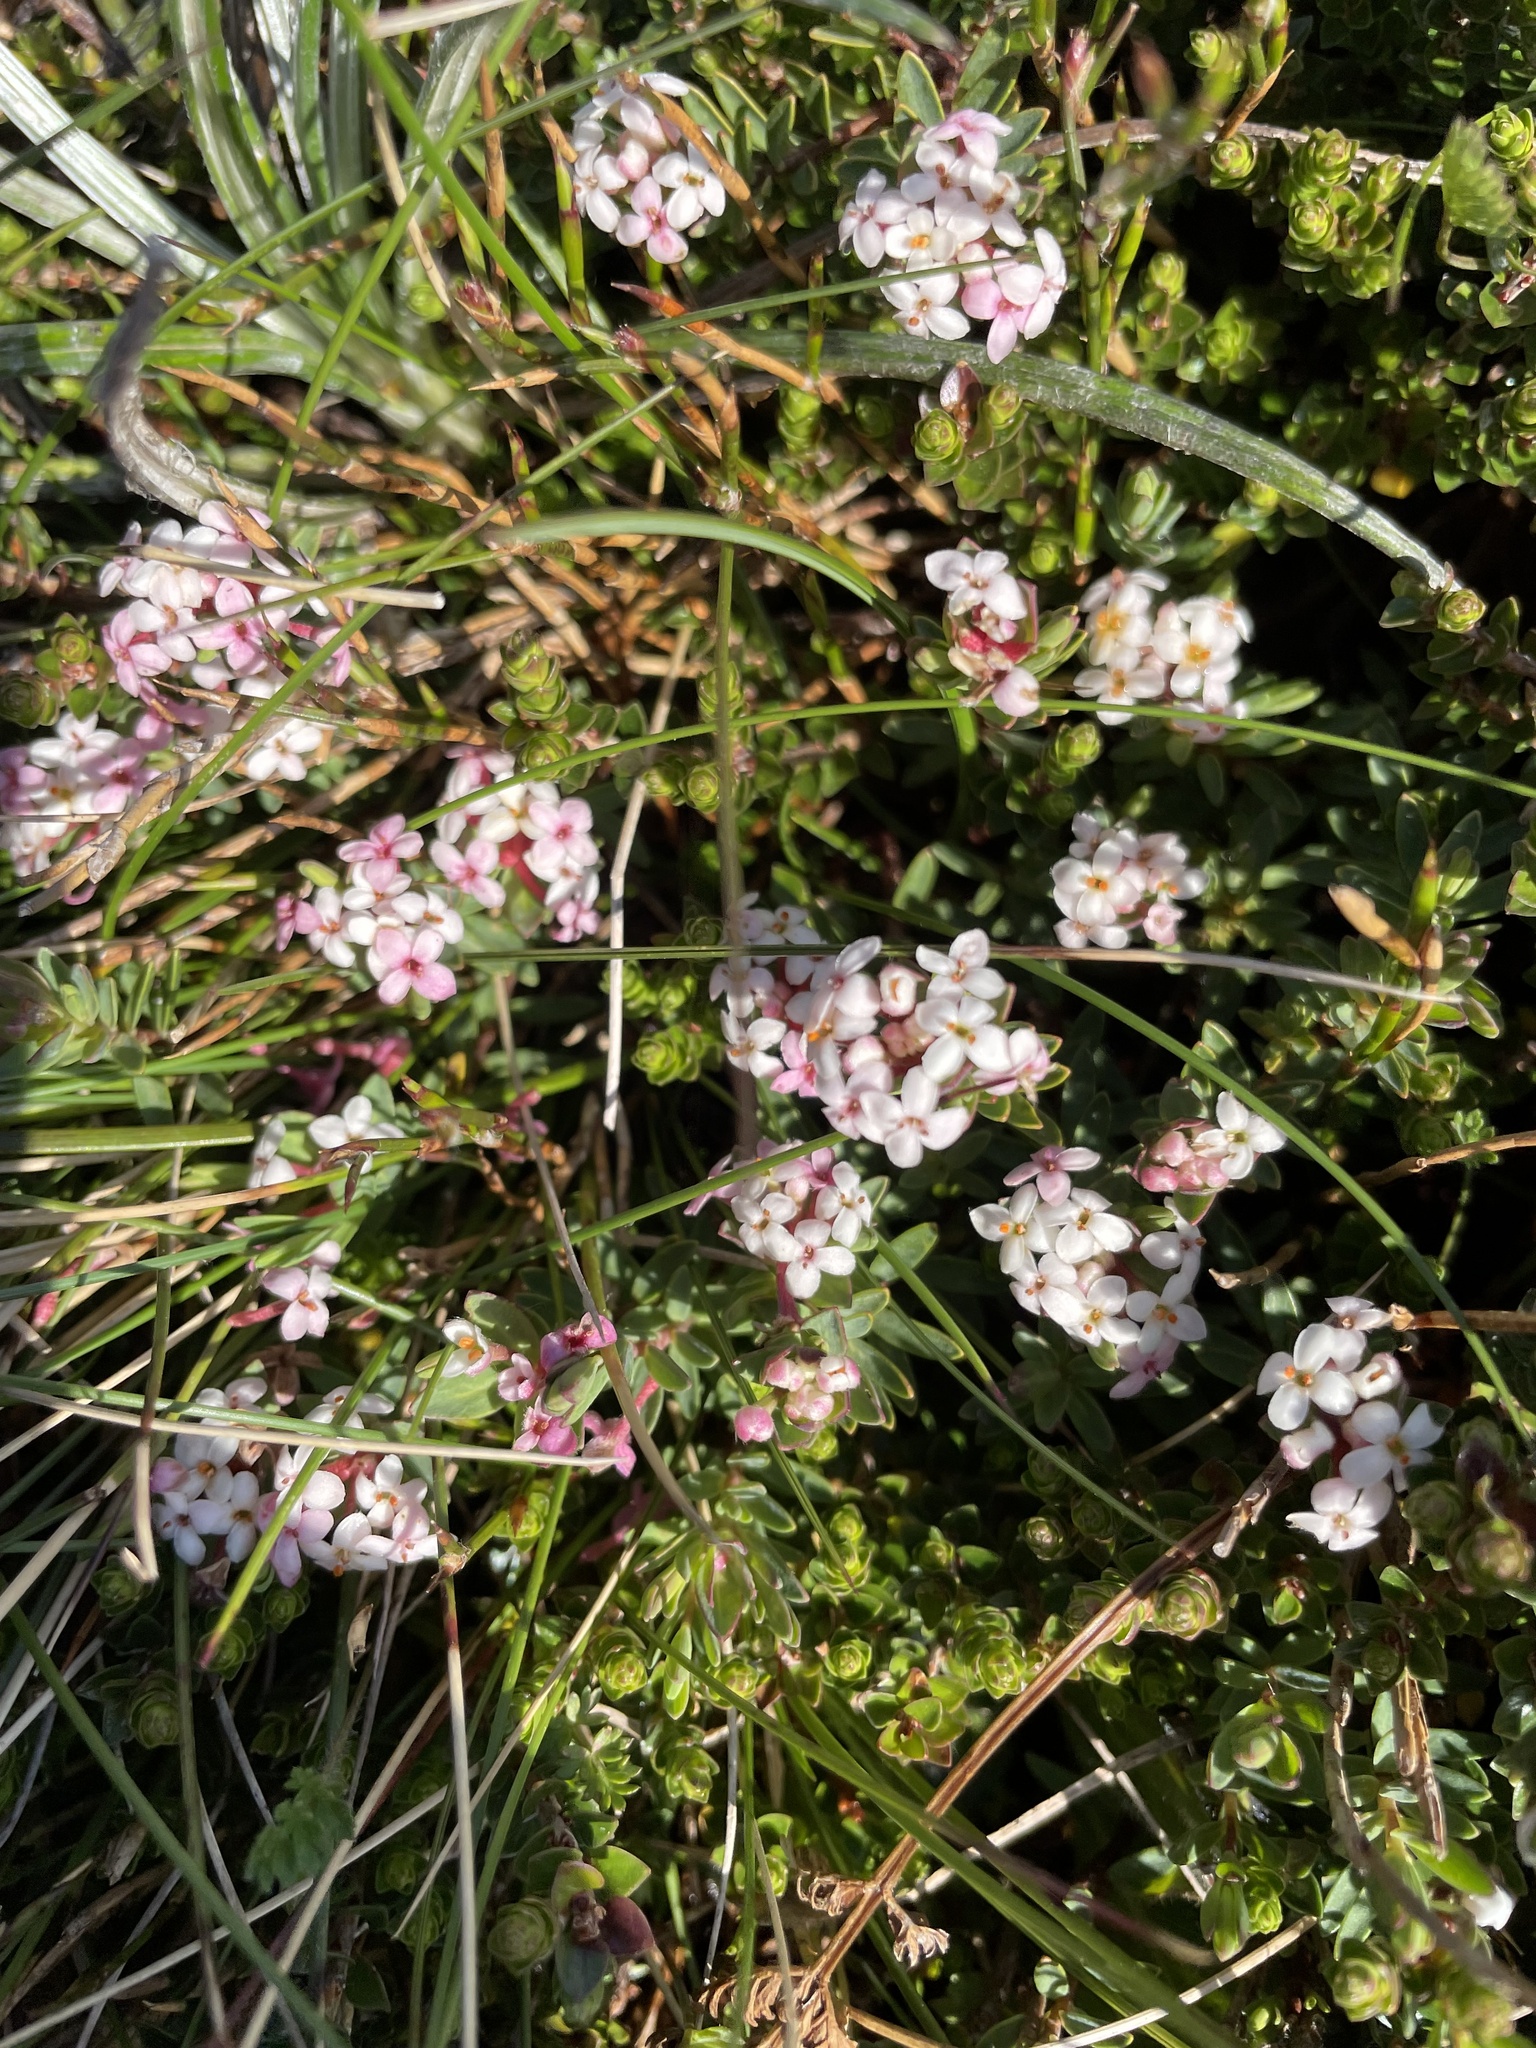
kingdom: Plantae
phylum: Tracheophyta
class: Magnoliopsida
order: Malvales
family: Thymelaeaceae
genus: Pimelea
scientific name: Pimelea alpina
